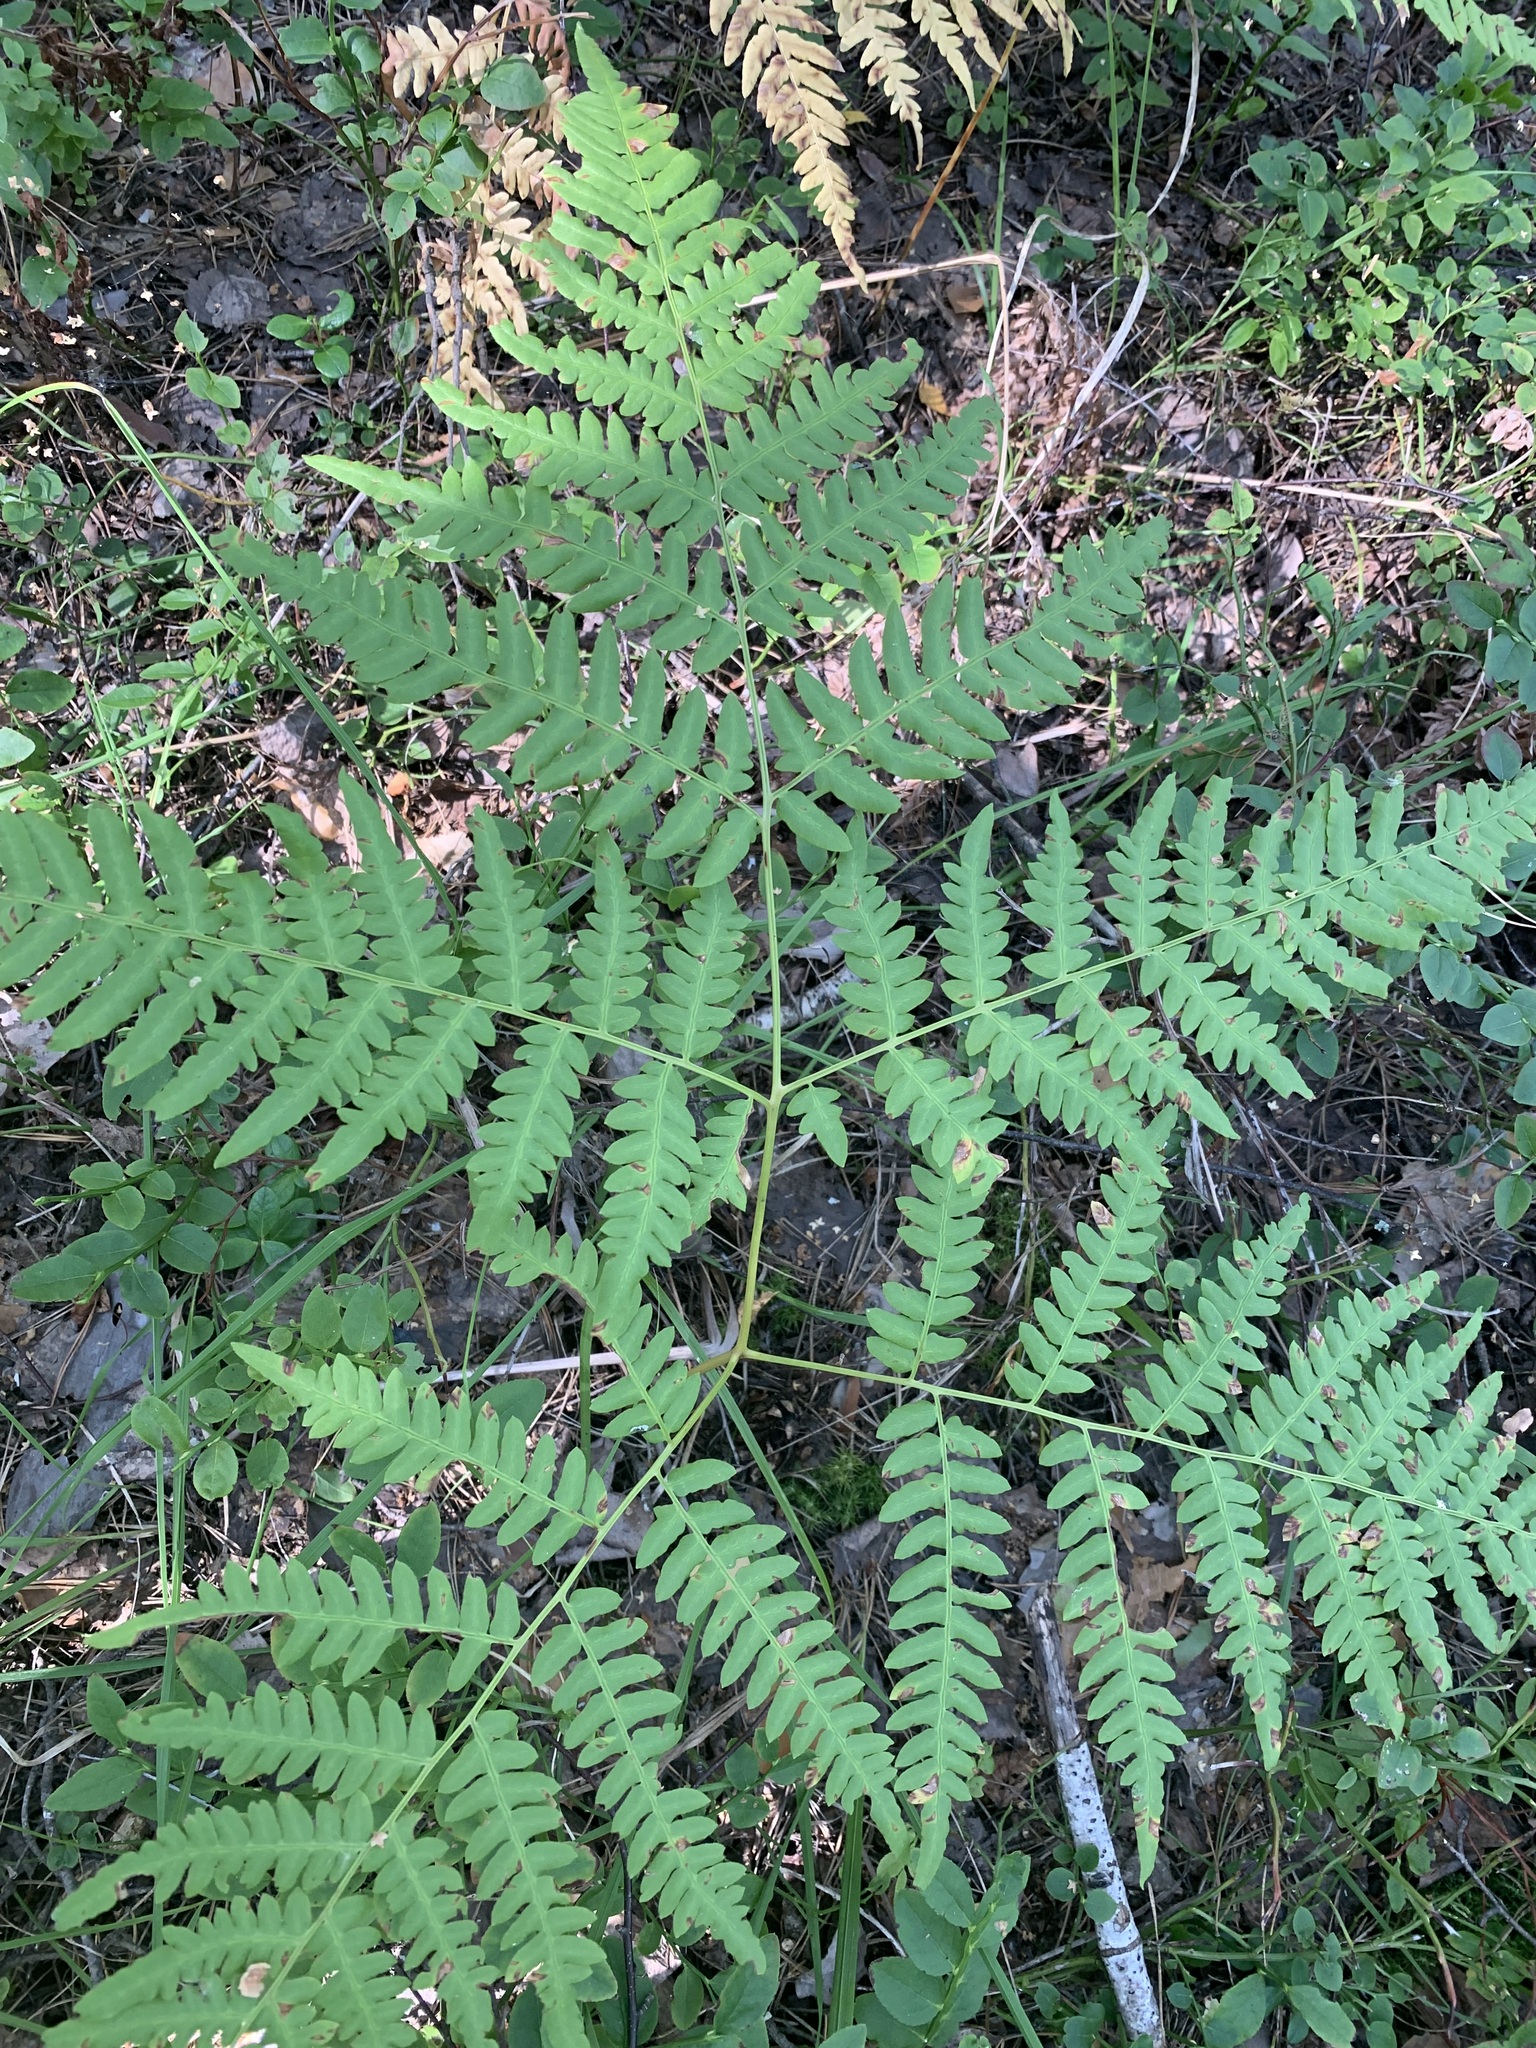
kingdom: Plantae
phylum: Tracheophyta
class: Polypodiopsida
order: Polypodiales
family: Dennstaedtiaceae
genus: Pteridium
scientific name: Pteridium aquilinum
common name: Bracken
